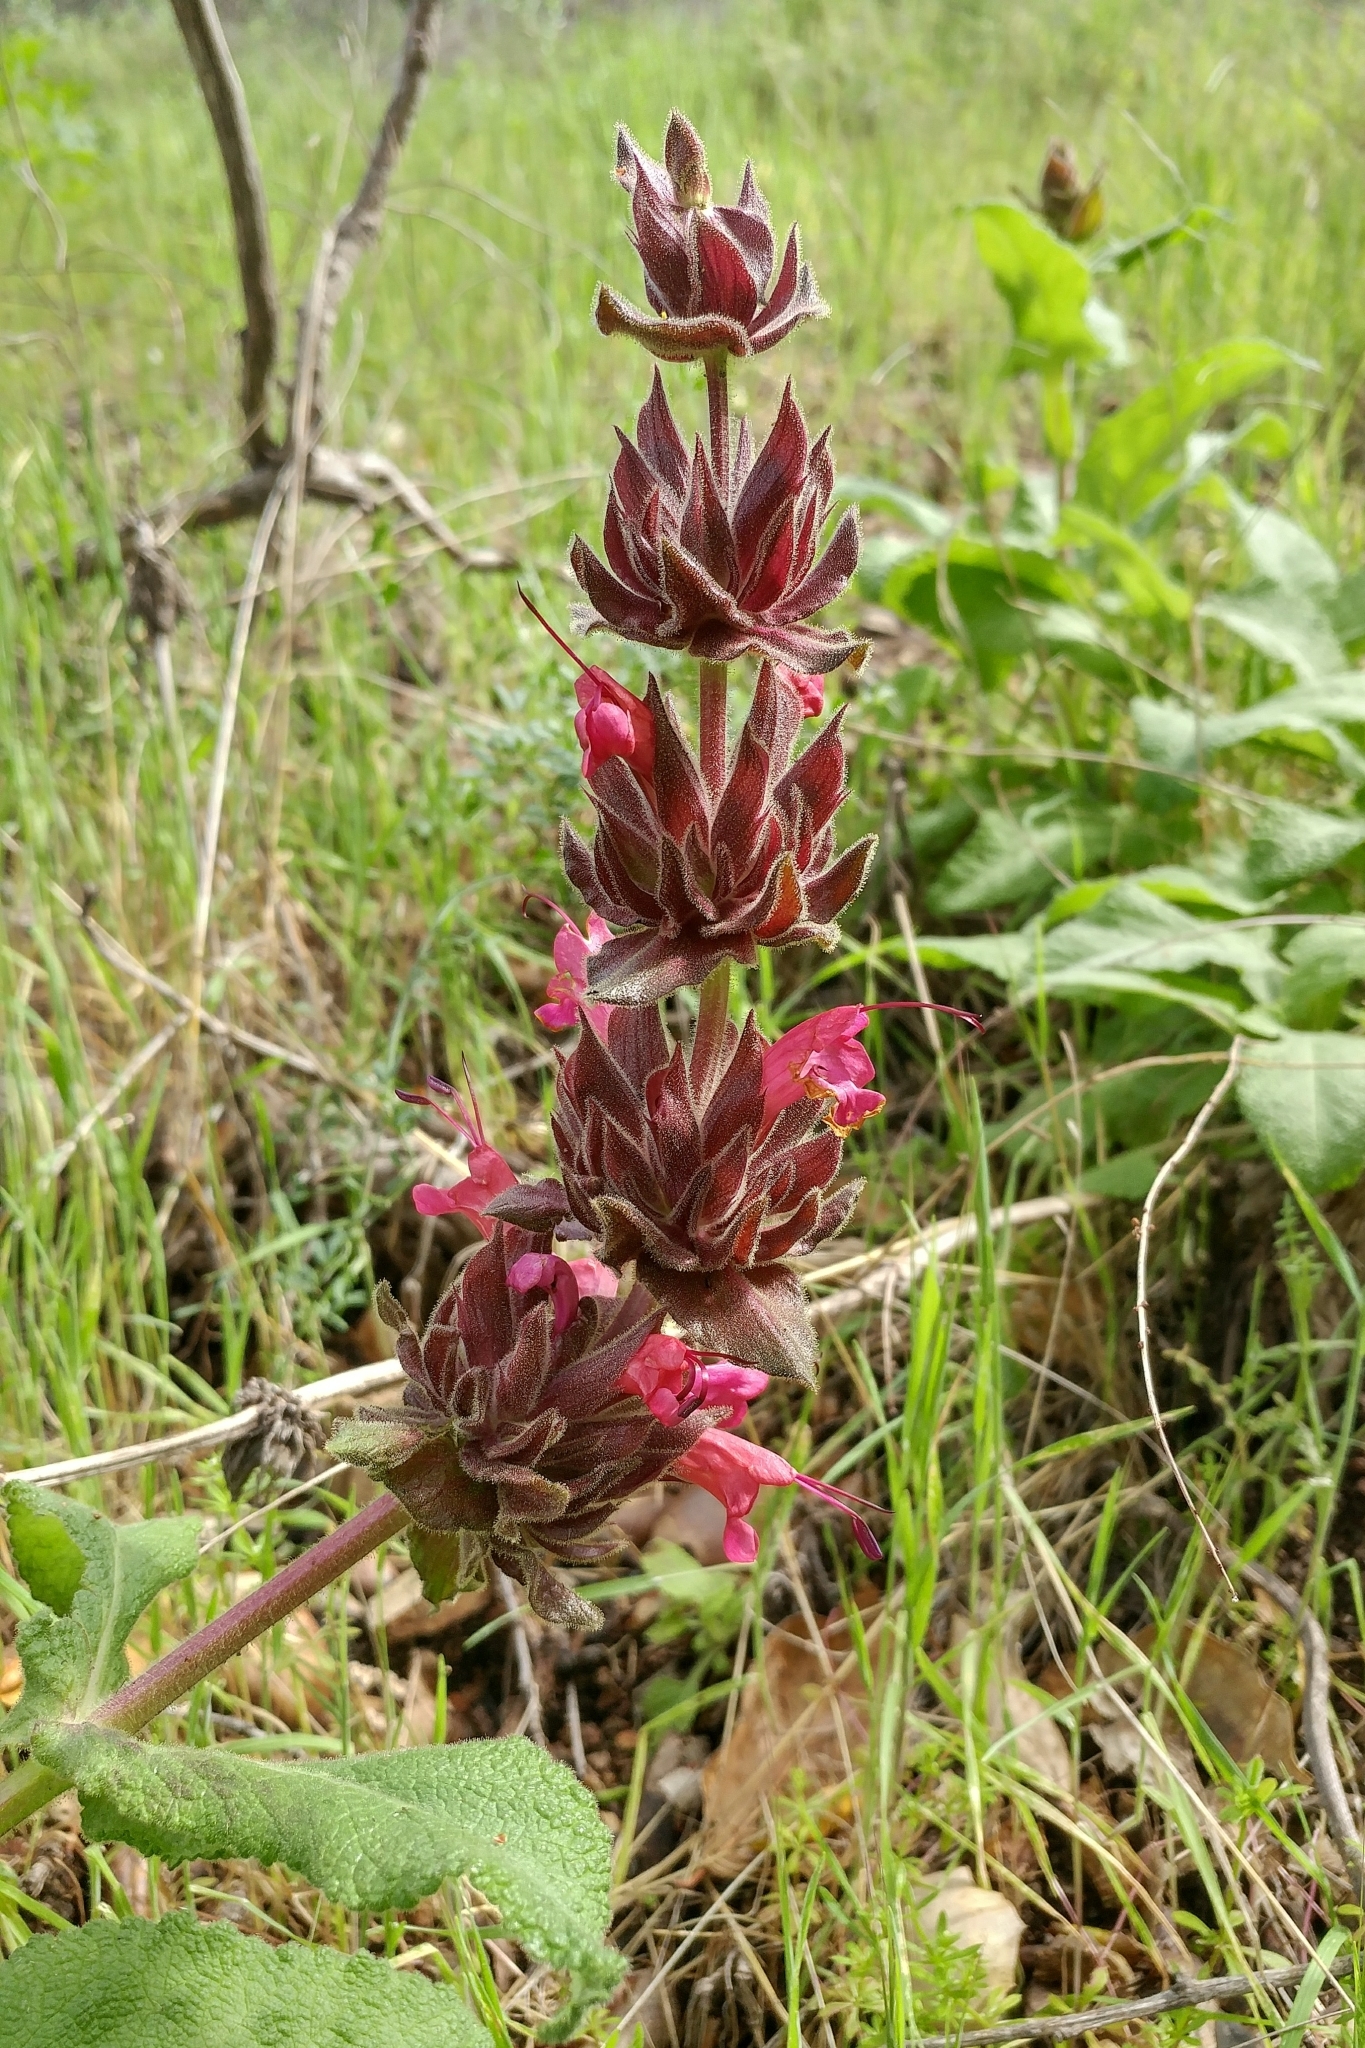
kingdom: Plantae
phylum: Tracheophyta
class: Magnoliopsida
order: Lamiales
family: Lamiaceae
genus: Salvia
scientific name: Salvia spathacea
